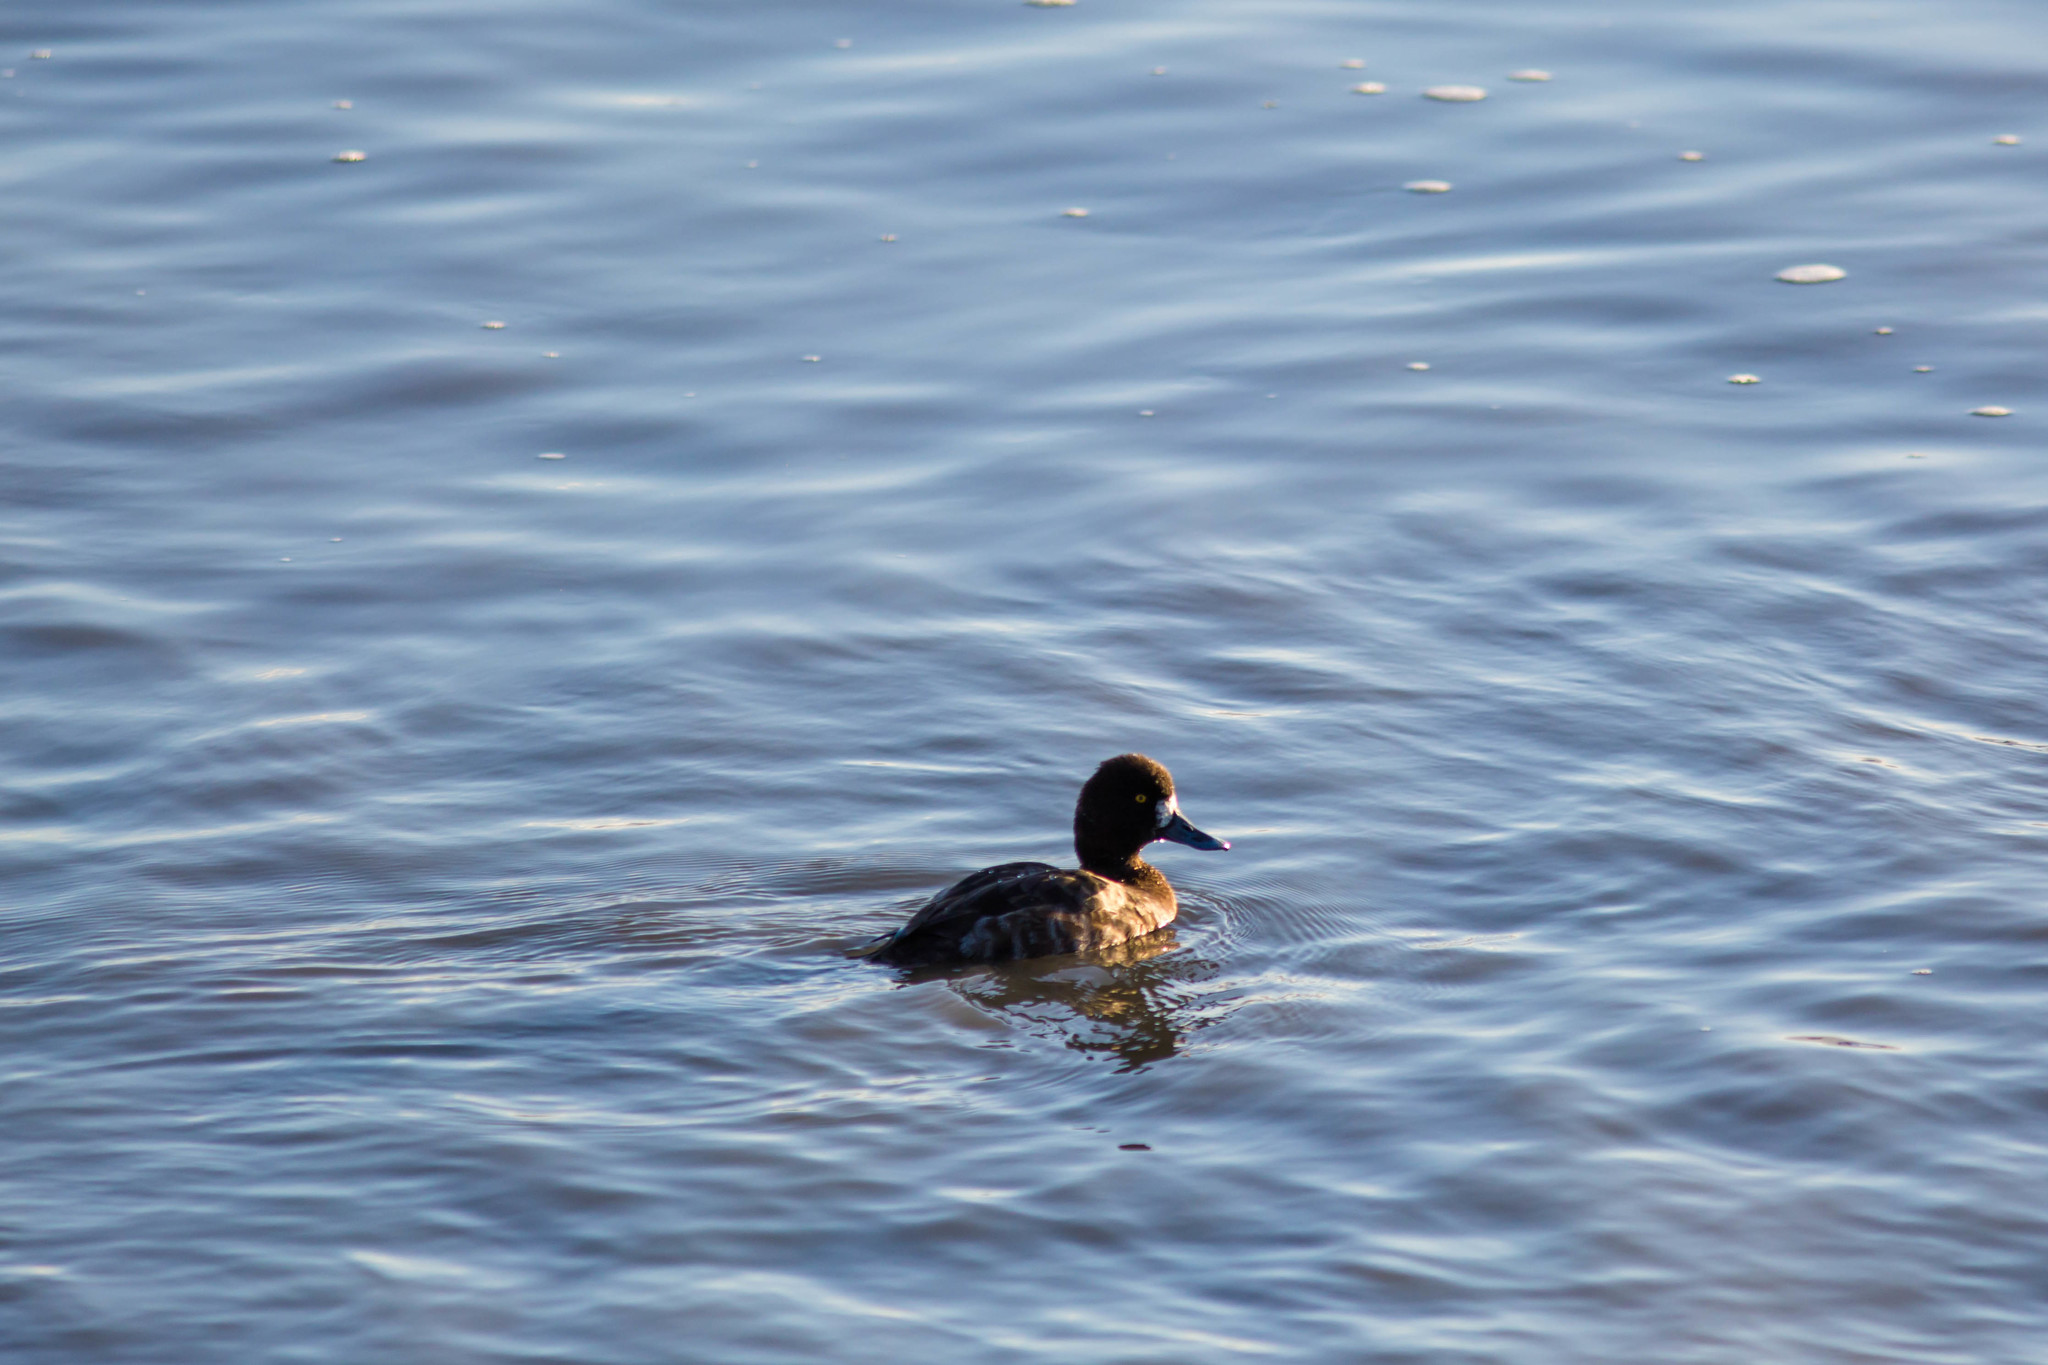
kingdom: Animalia
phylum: Chordata
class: Aves
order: Anseriformes
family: Anatidae
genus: Aythya
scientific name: Aythya affinis
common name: Lesser scaup
